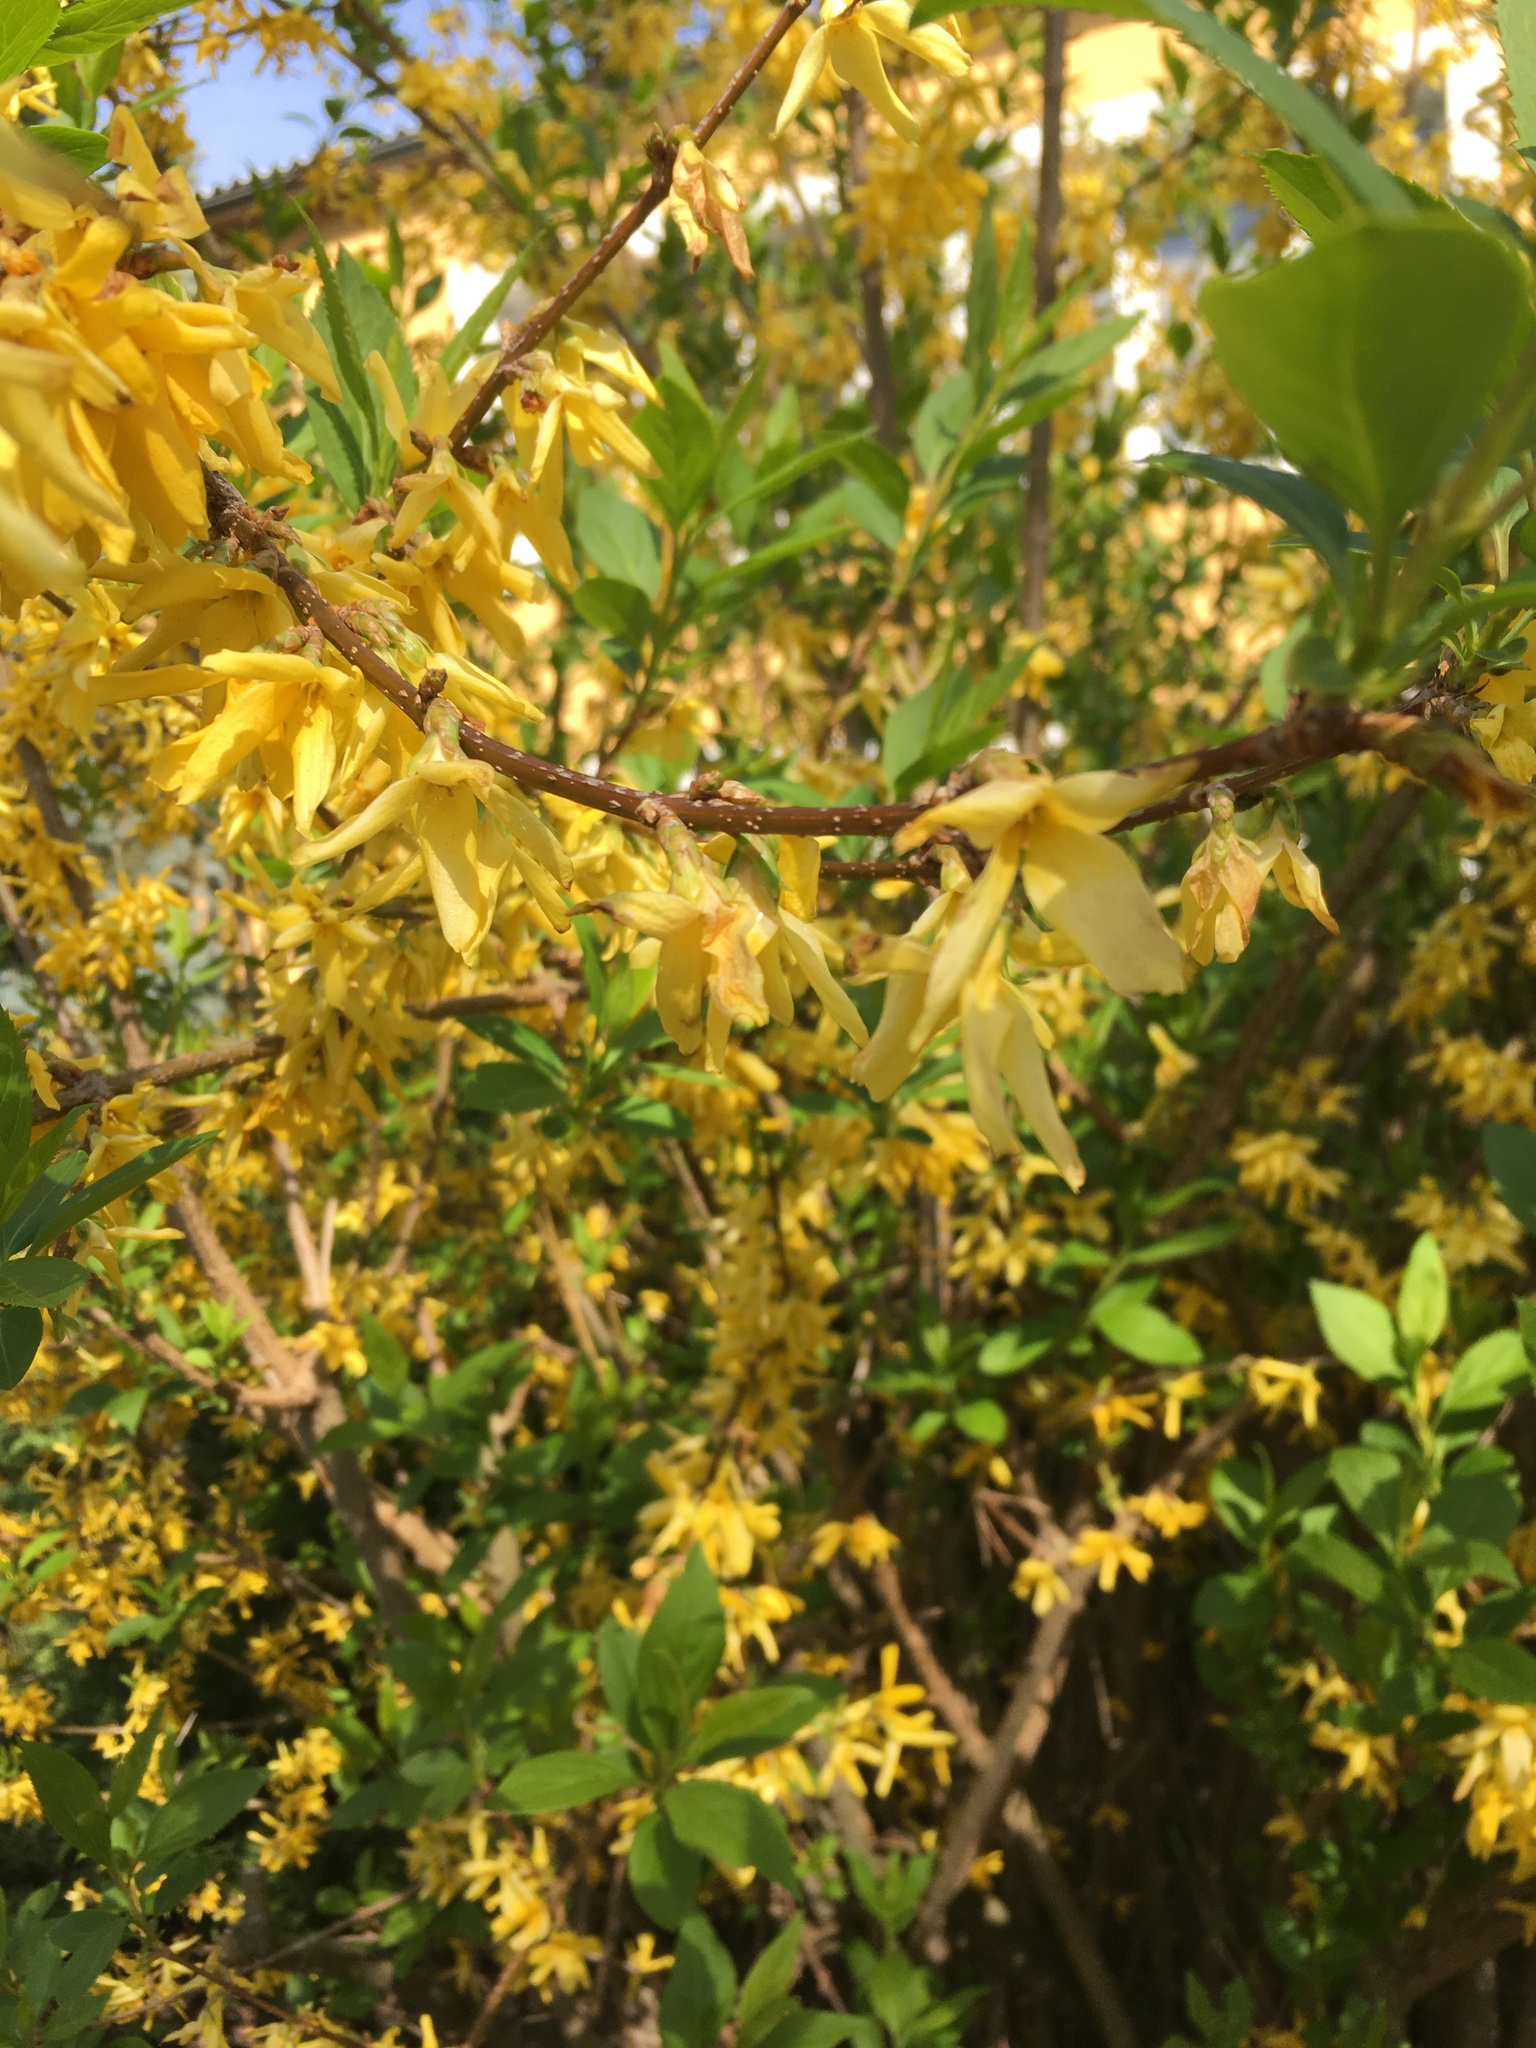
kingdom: Plantae
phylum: Tracheophyta
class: Magnoliopsida
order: Lamiales
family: Oleaceae
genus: Forsythia
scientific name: Forsythia intermedia
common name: Forsythia
